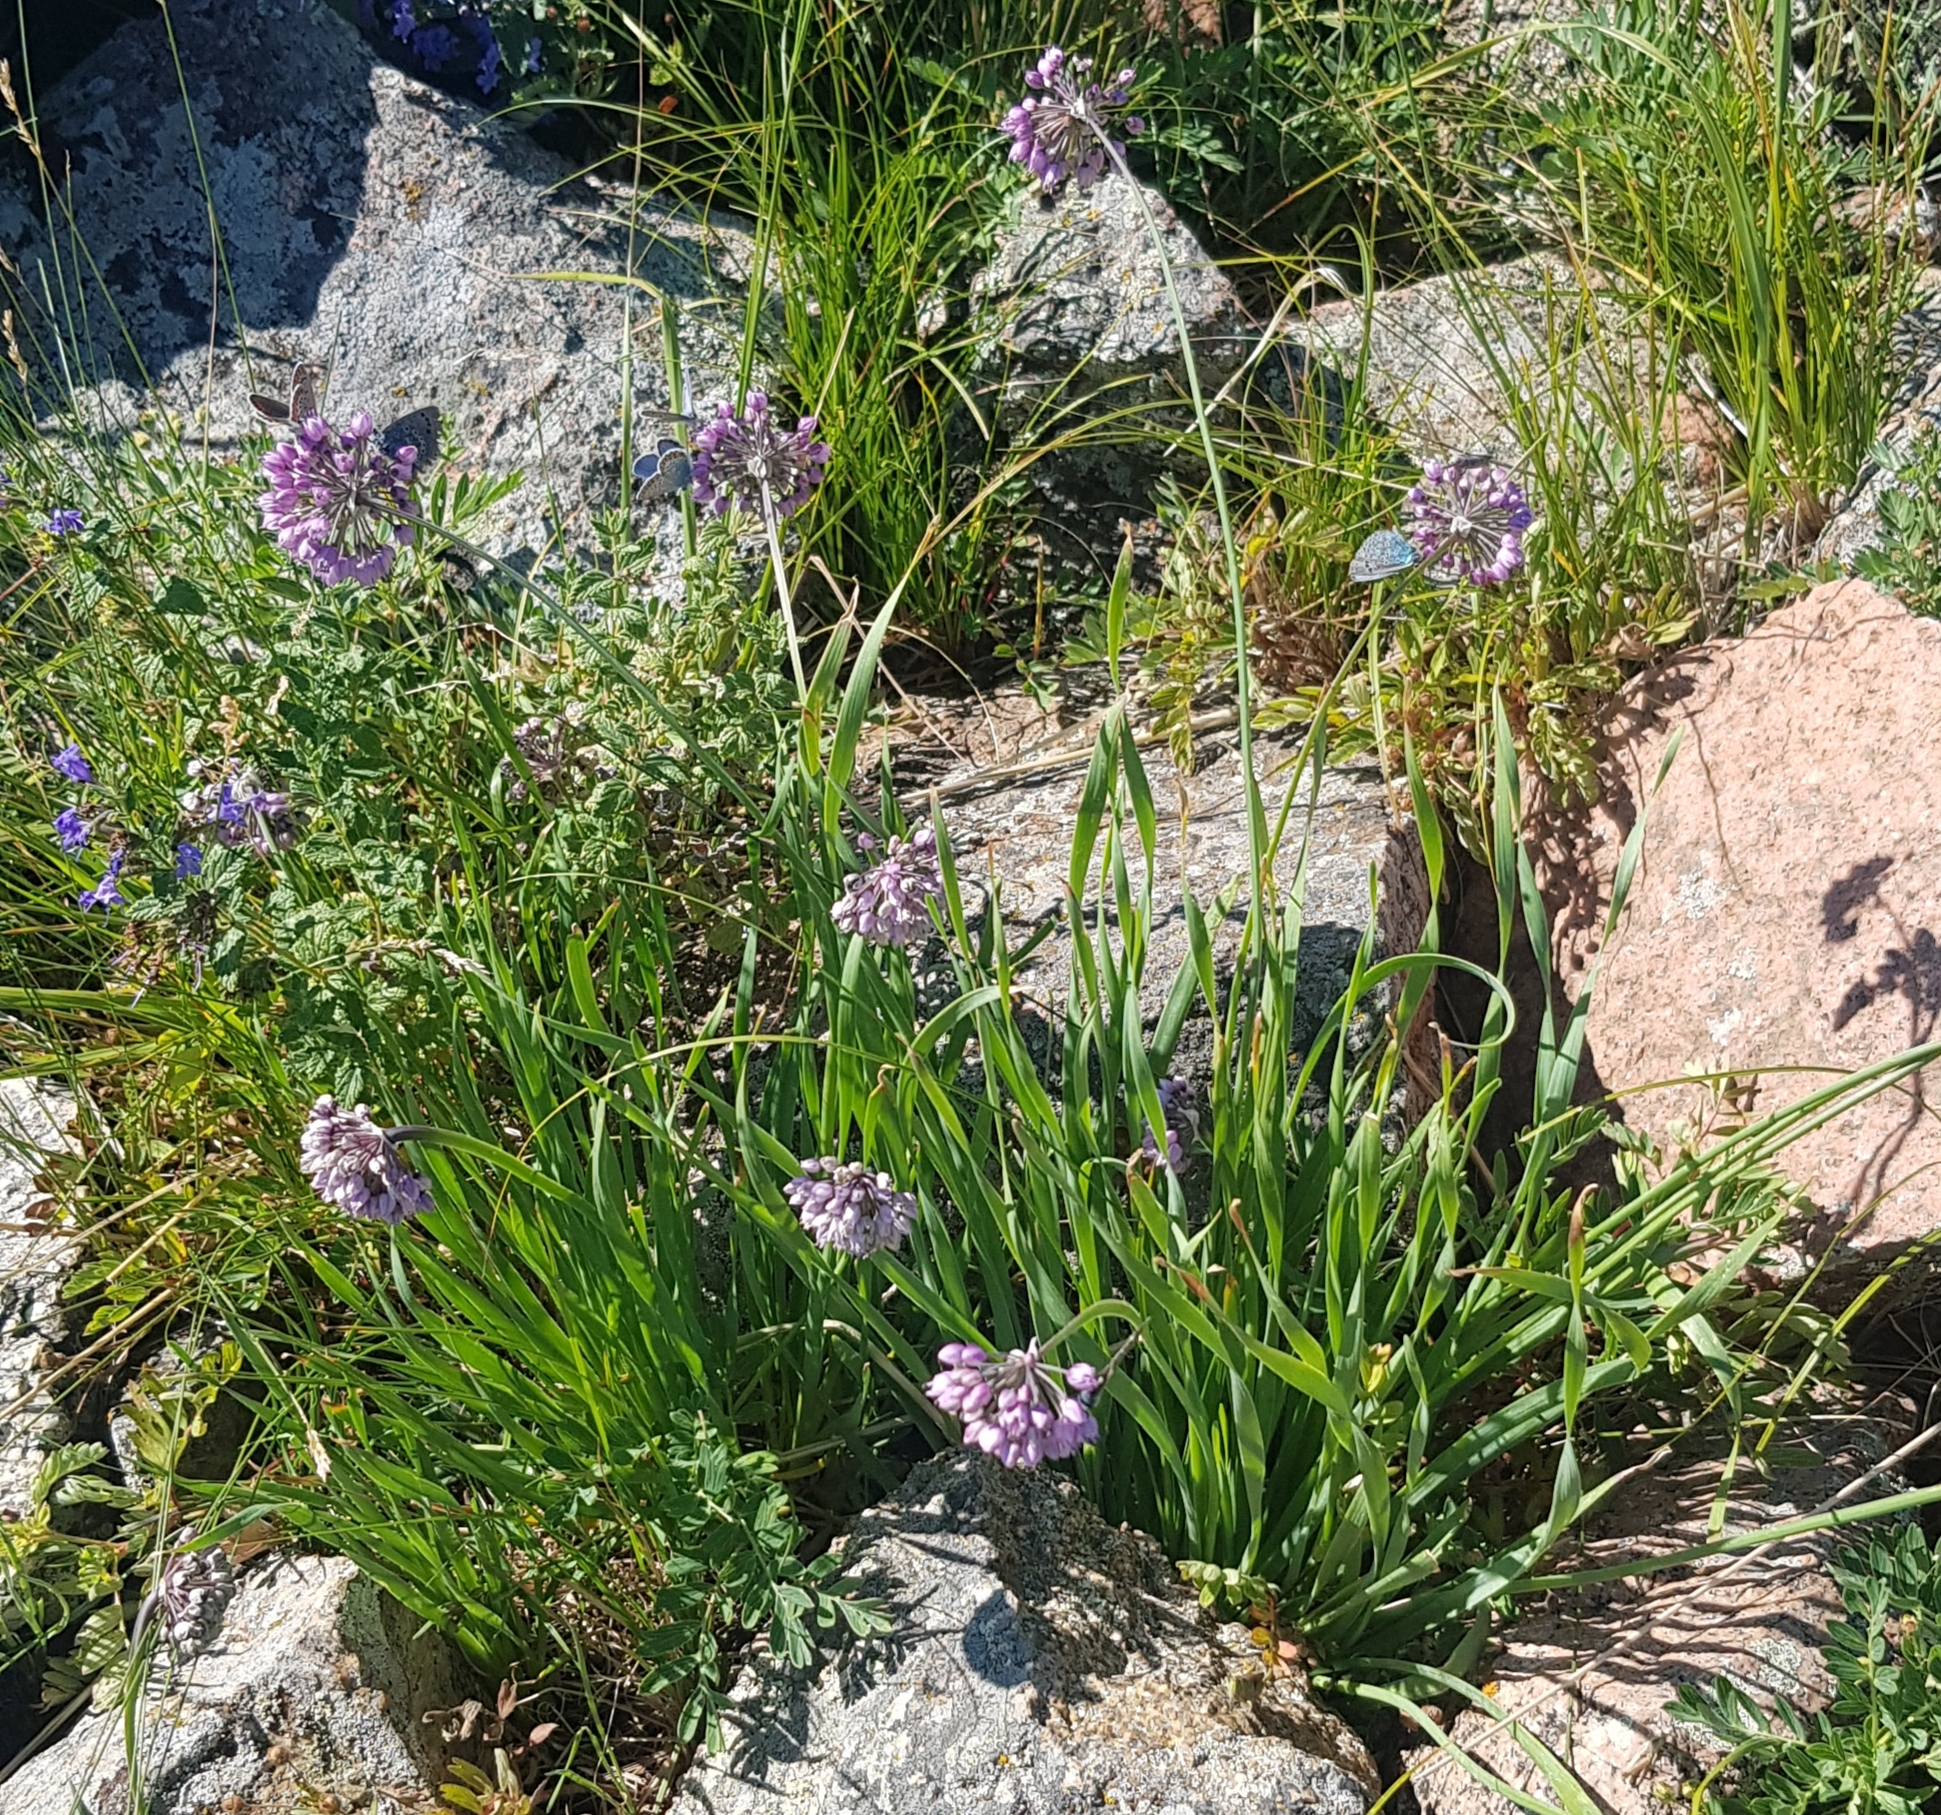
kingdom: Plantae
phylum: Tracheophyta
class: Liliopsida
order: Asparagales
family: Amaryllidaceae
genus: Allium
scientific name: Allium senescens
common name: German garlic
